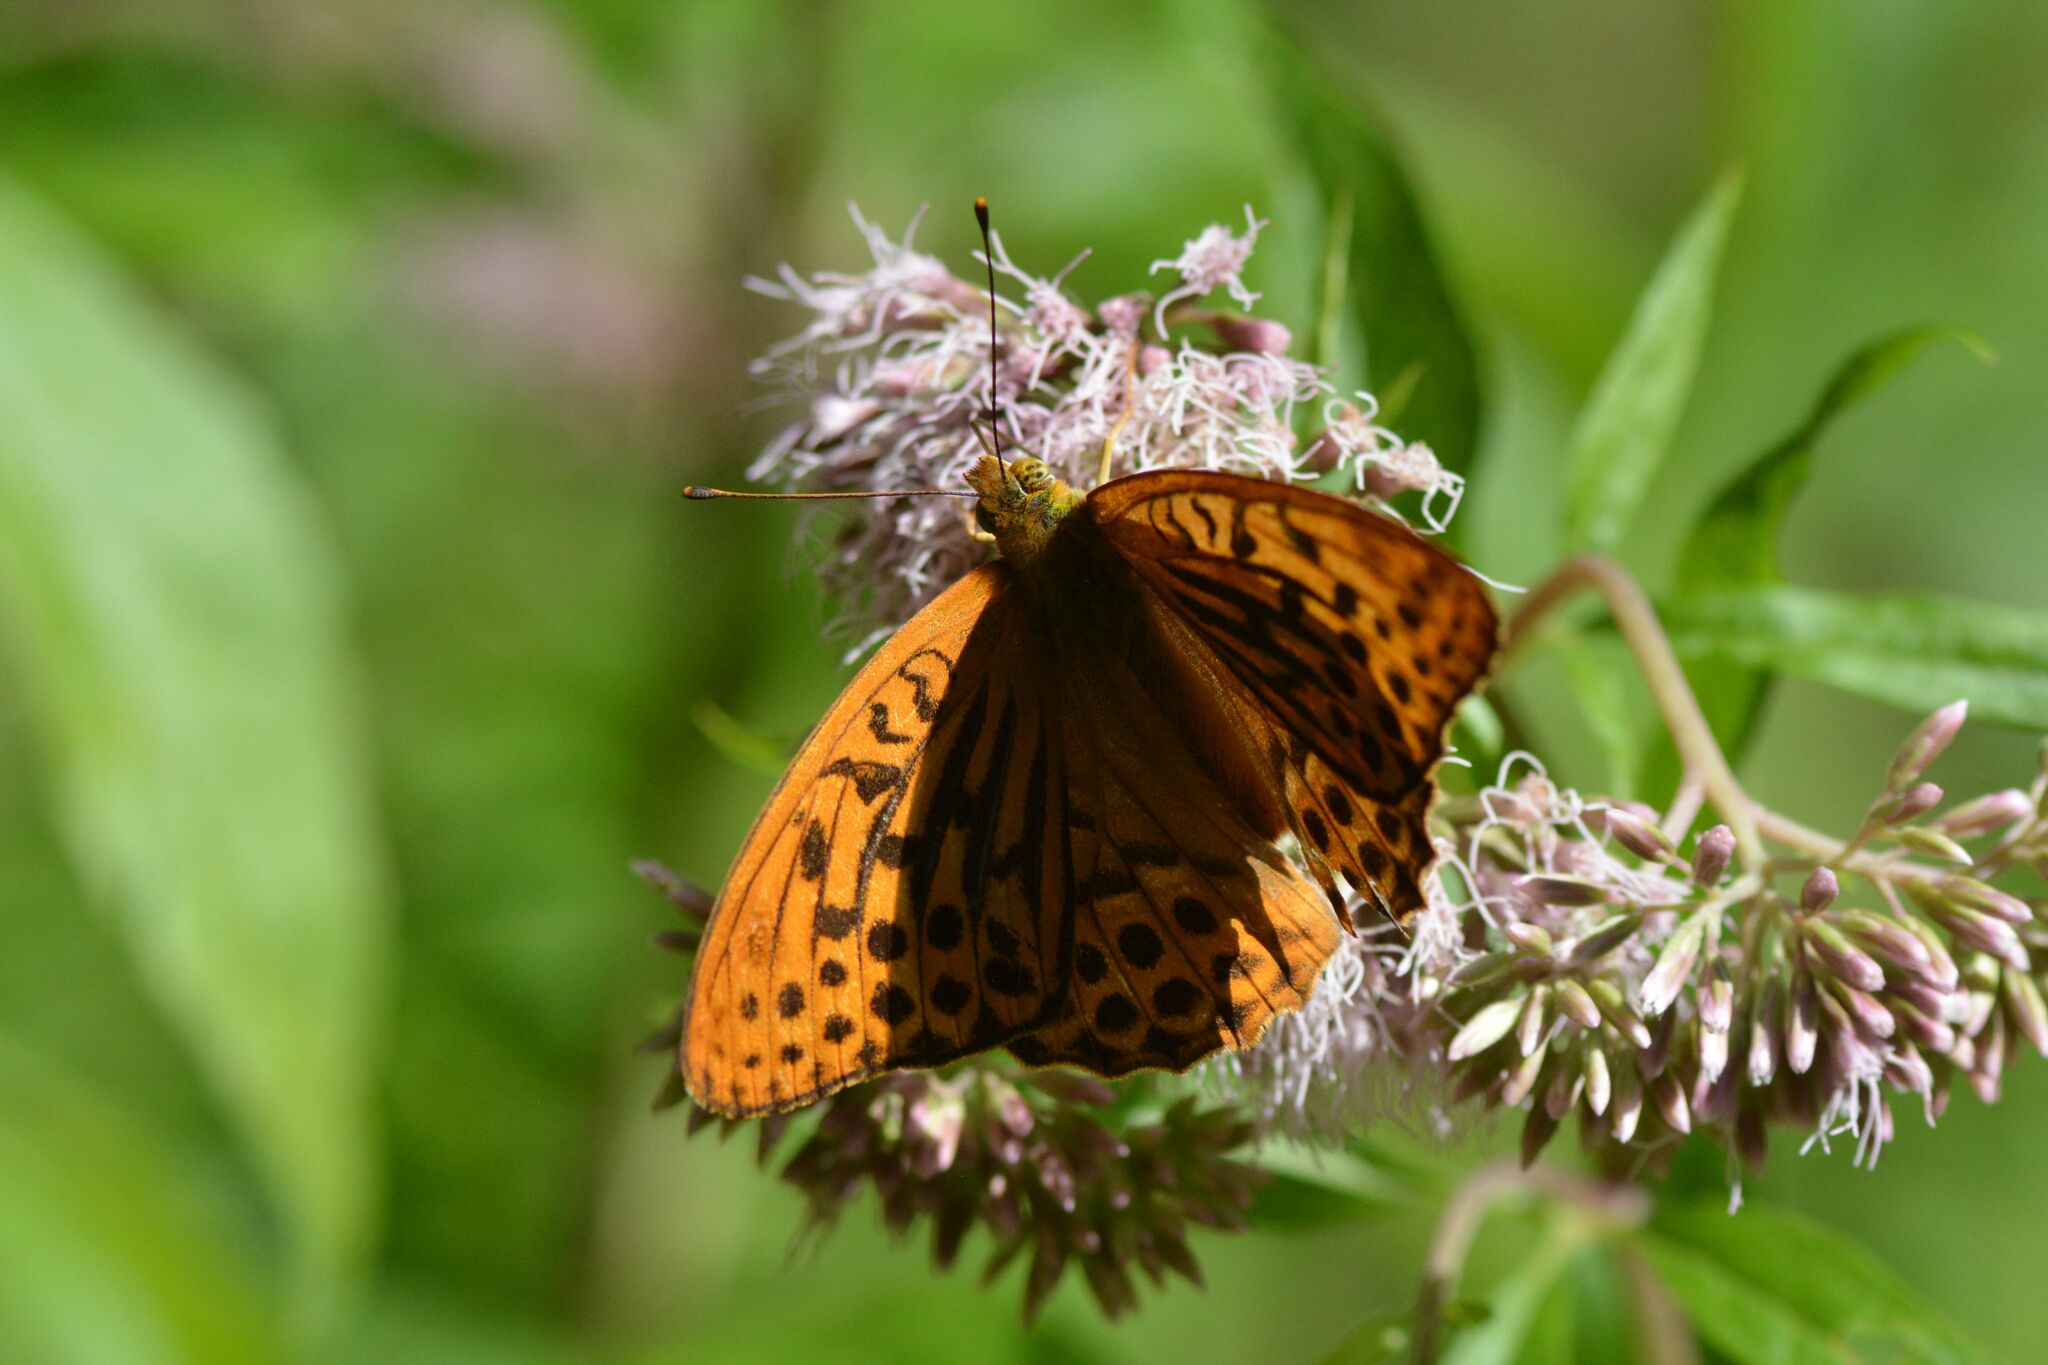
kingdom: Animalia
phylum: Arthropoda
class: Insecta
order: Lepidoptera
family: Nymphalidae
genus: Argynnis
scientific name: Argynnis paphia
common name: Silver-washed fritillary
